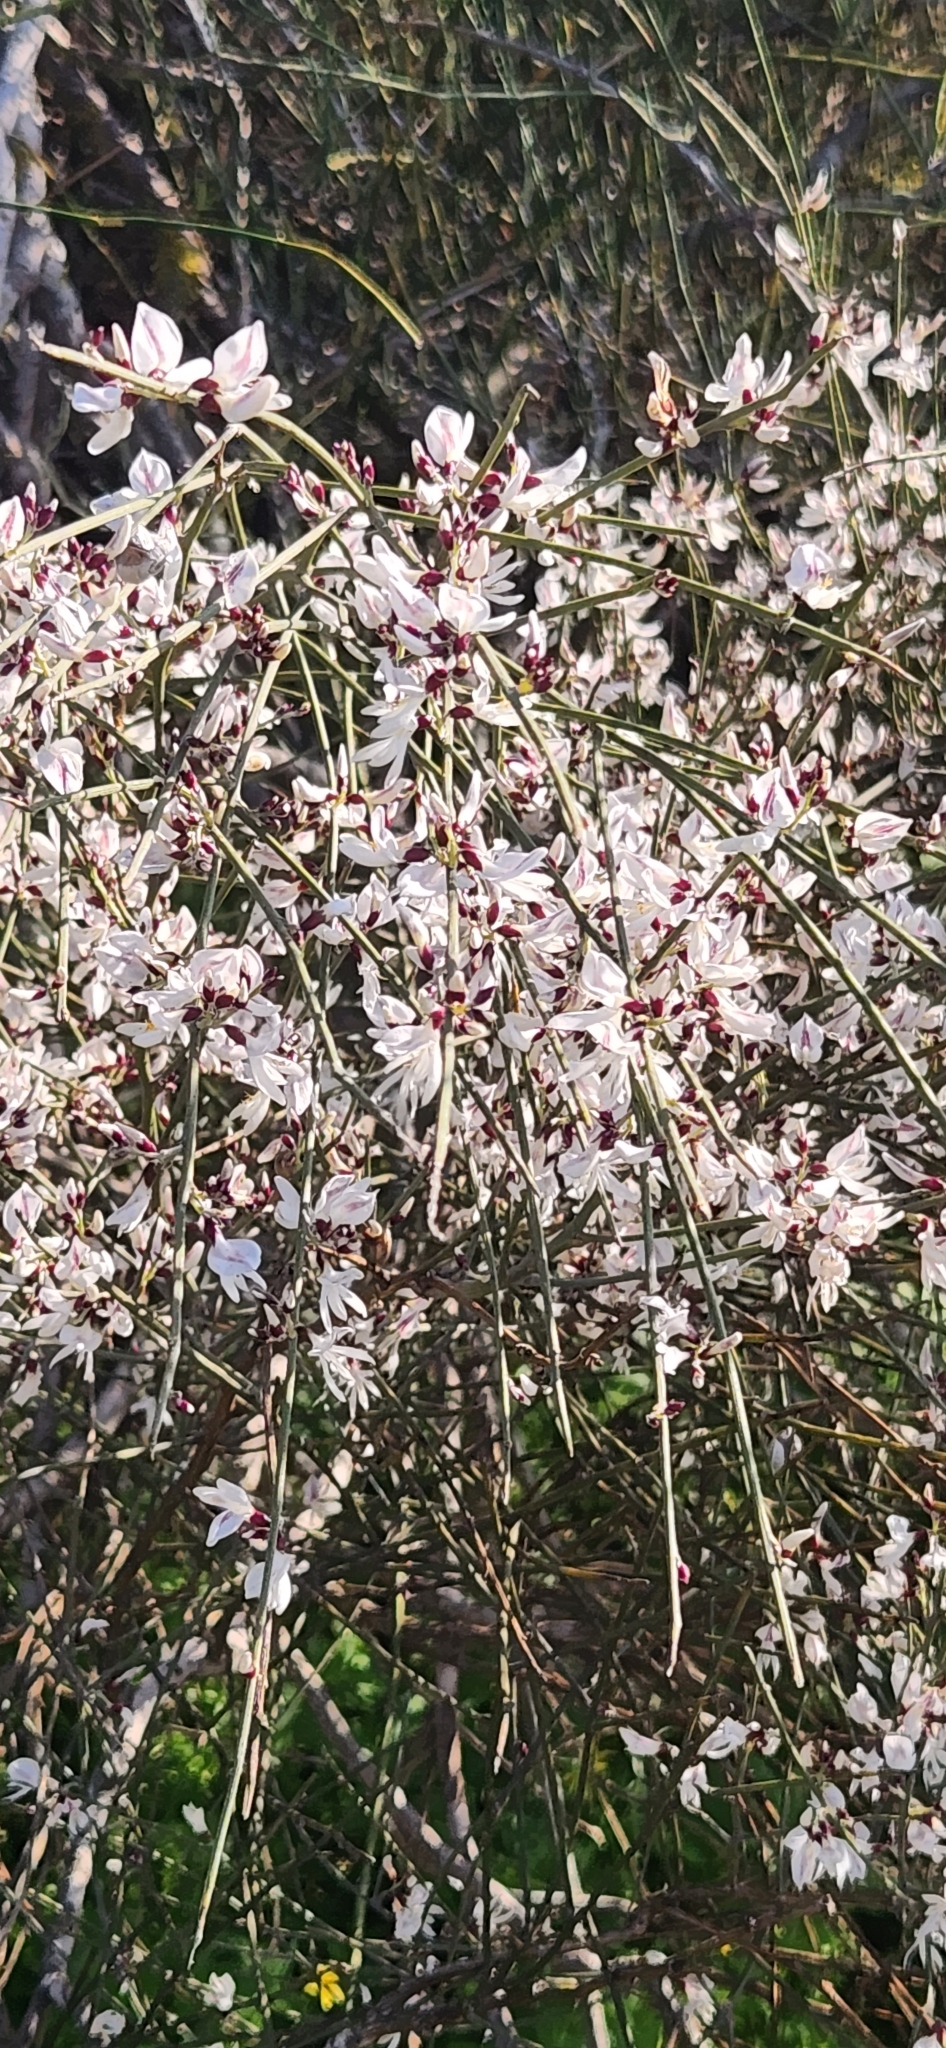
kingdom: Plantae
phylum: Tracheophyta
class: Magnoliopsida
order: Fabales
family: Fabaceae
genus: Retama
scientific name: Retama raetam
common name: Retem
